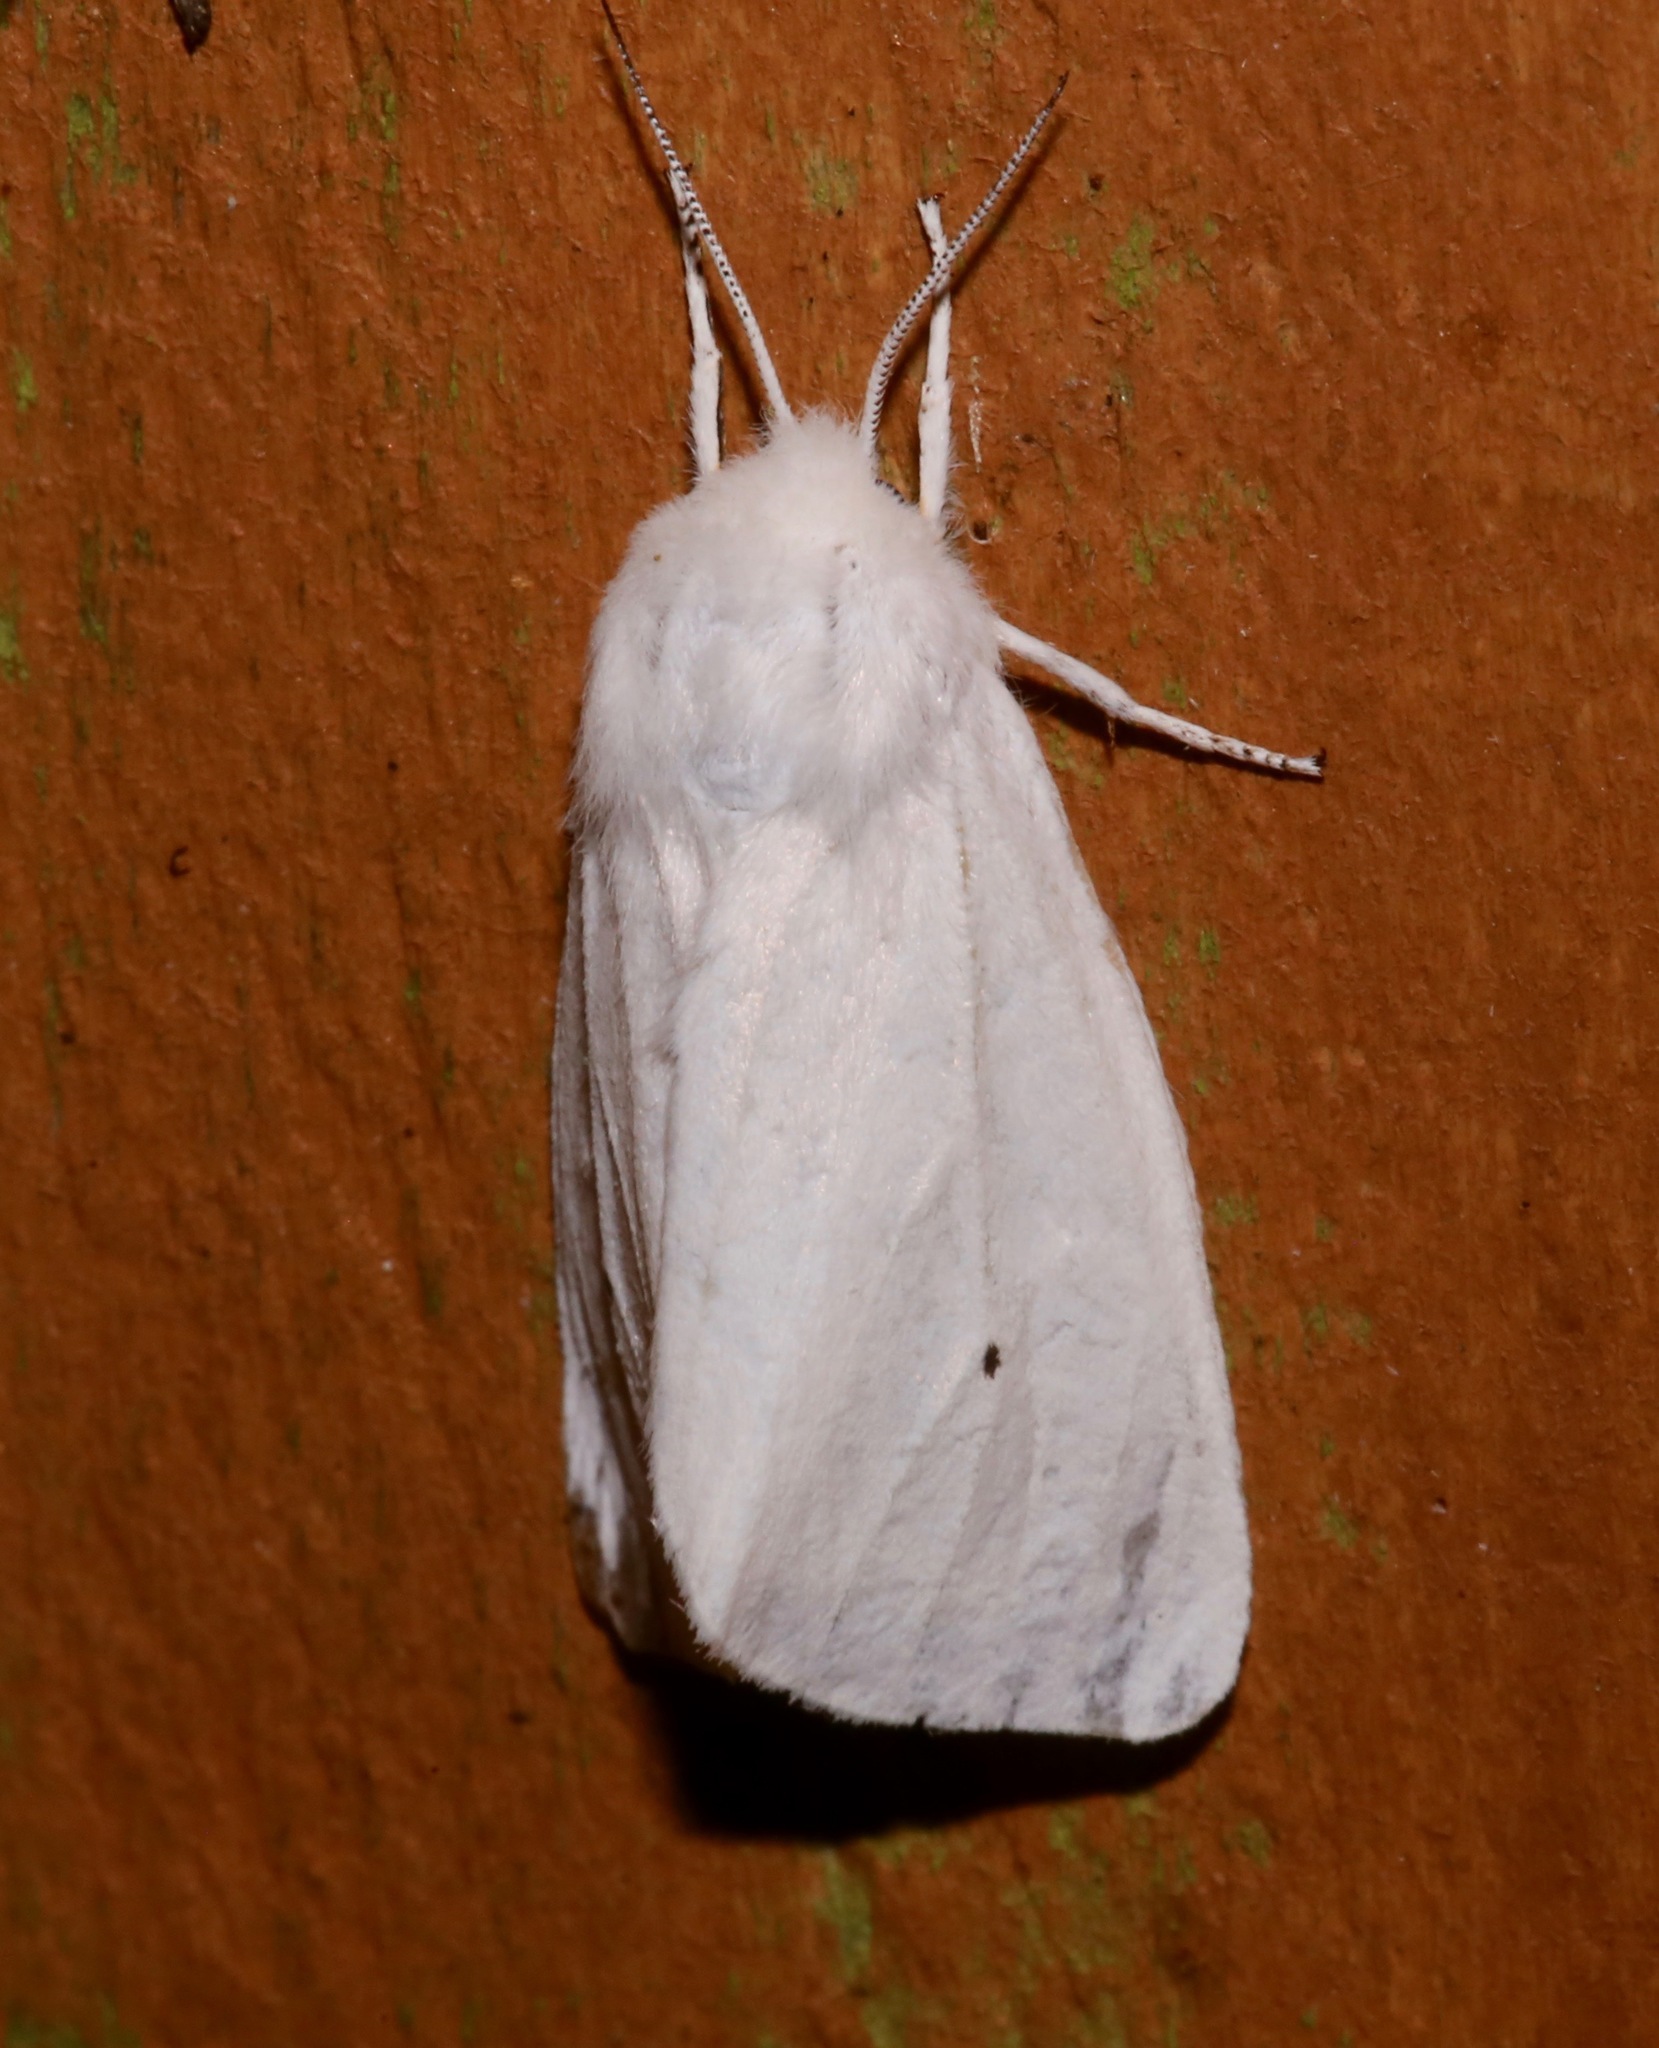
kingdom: Animalia
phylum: Arthropoda
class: Insecta
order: Lepidoptera
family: Erebidae
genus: Spilosoma
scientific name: Spilosoma virginica
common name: Virginia tiger moth
